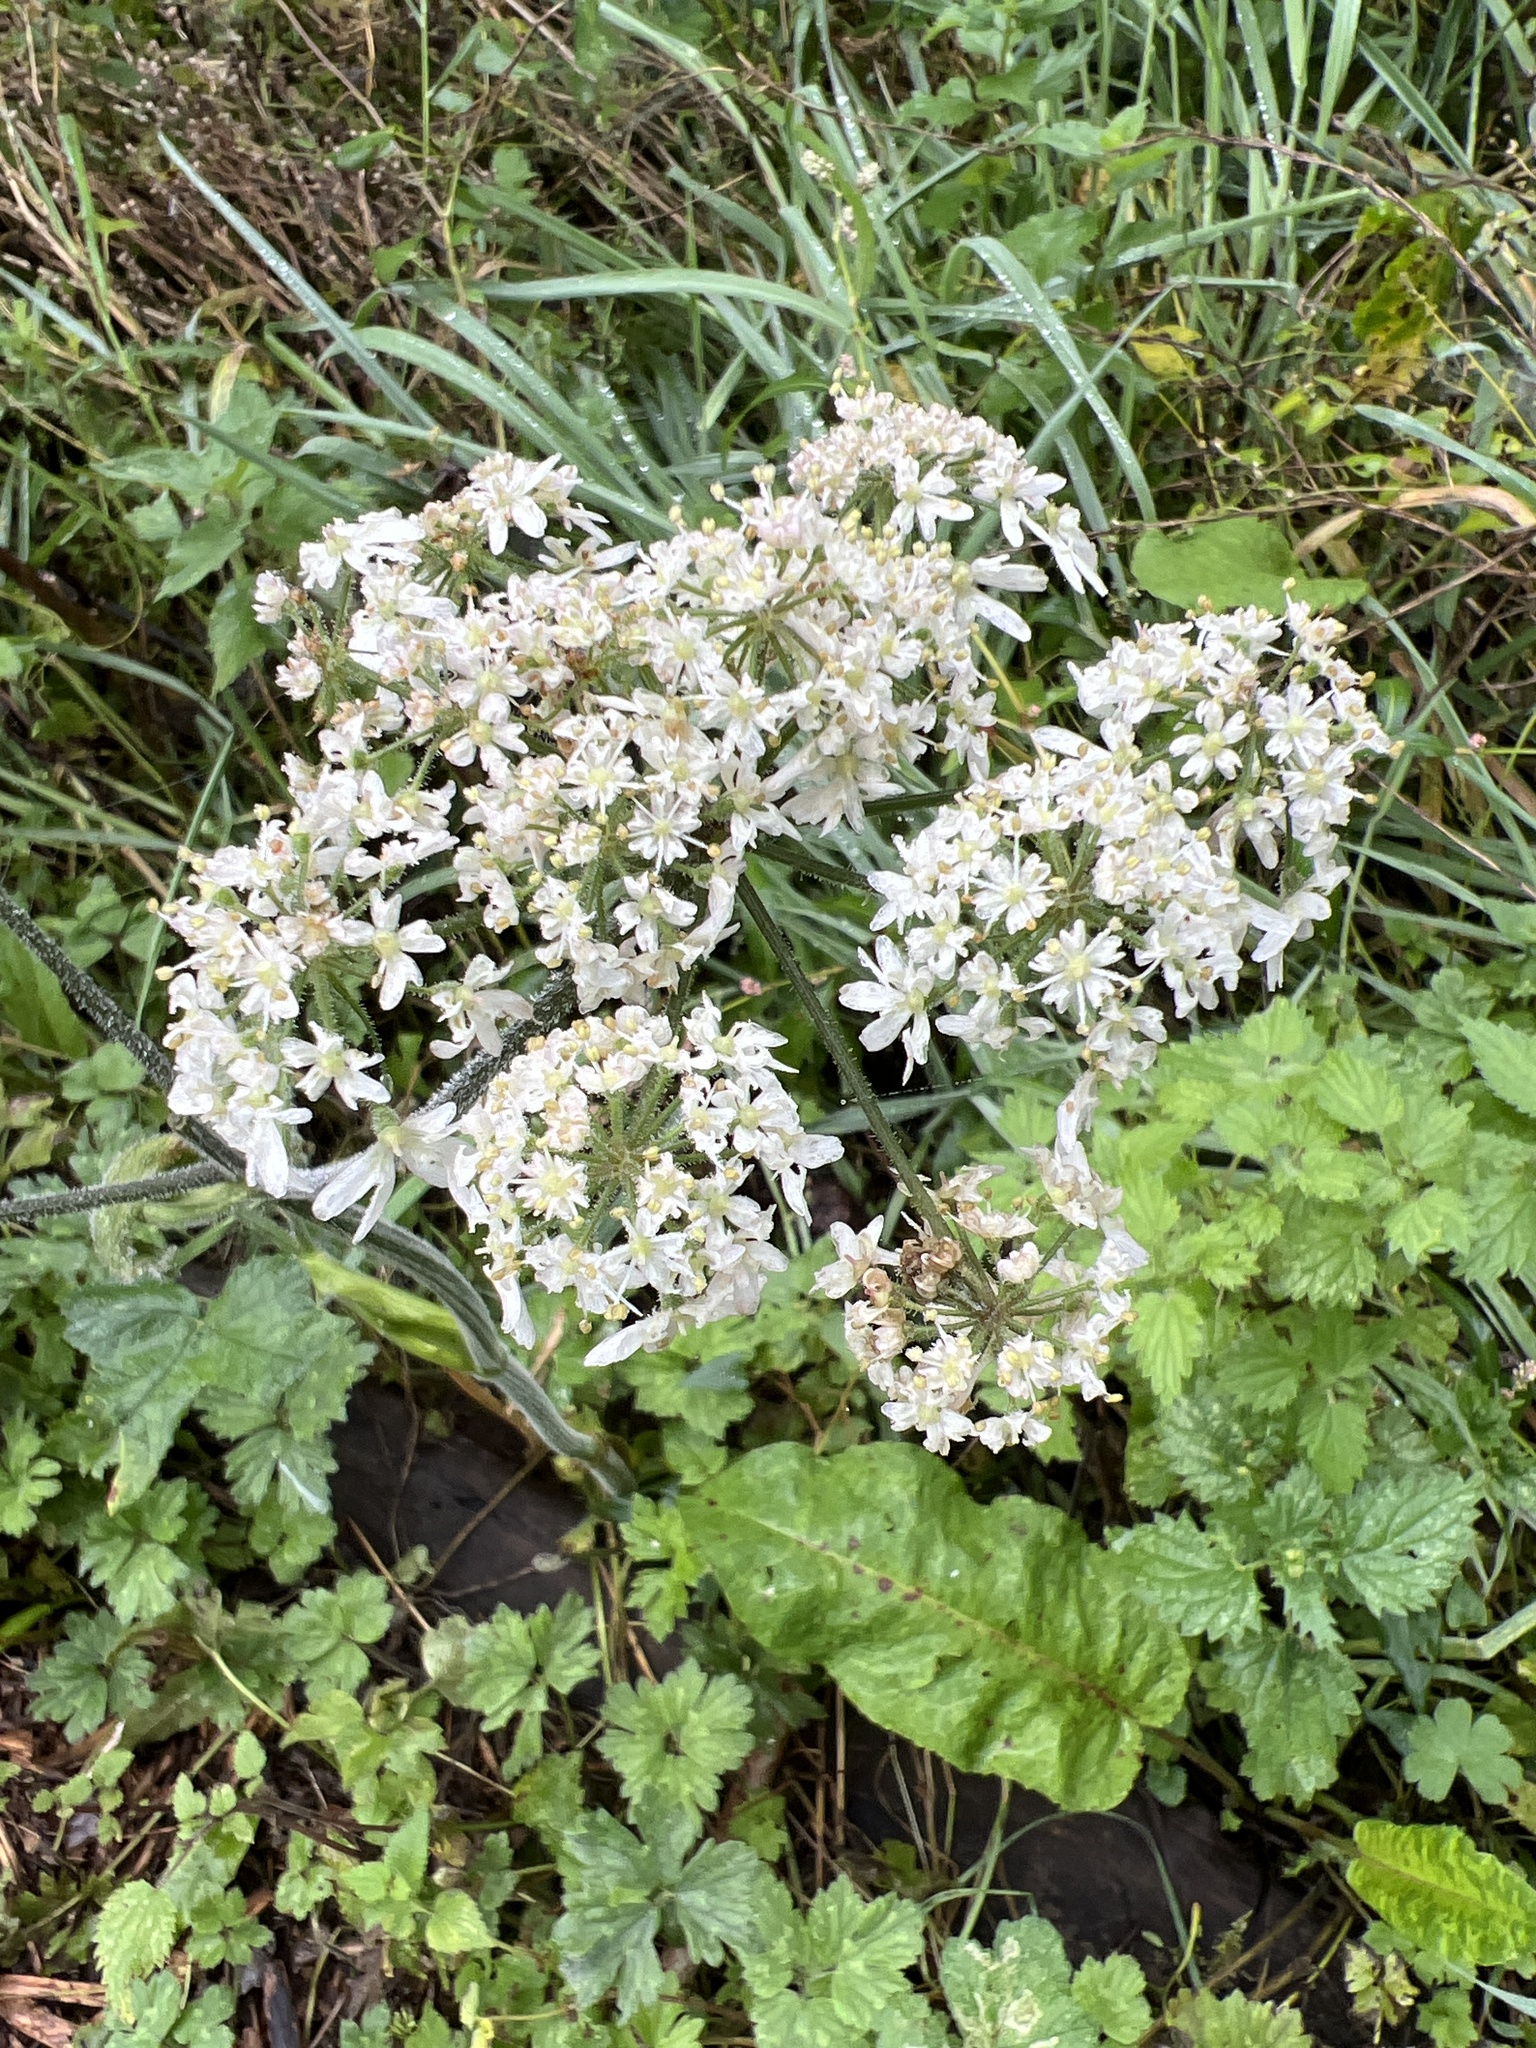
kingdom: Plantae
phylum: Tracheophyta
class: Magnoliopsida
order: Apiales
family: Apiaceae
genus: Heracleum
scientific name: Heracleum sphondylium
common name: Hogweed
